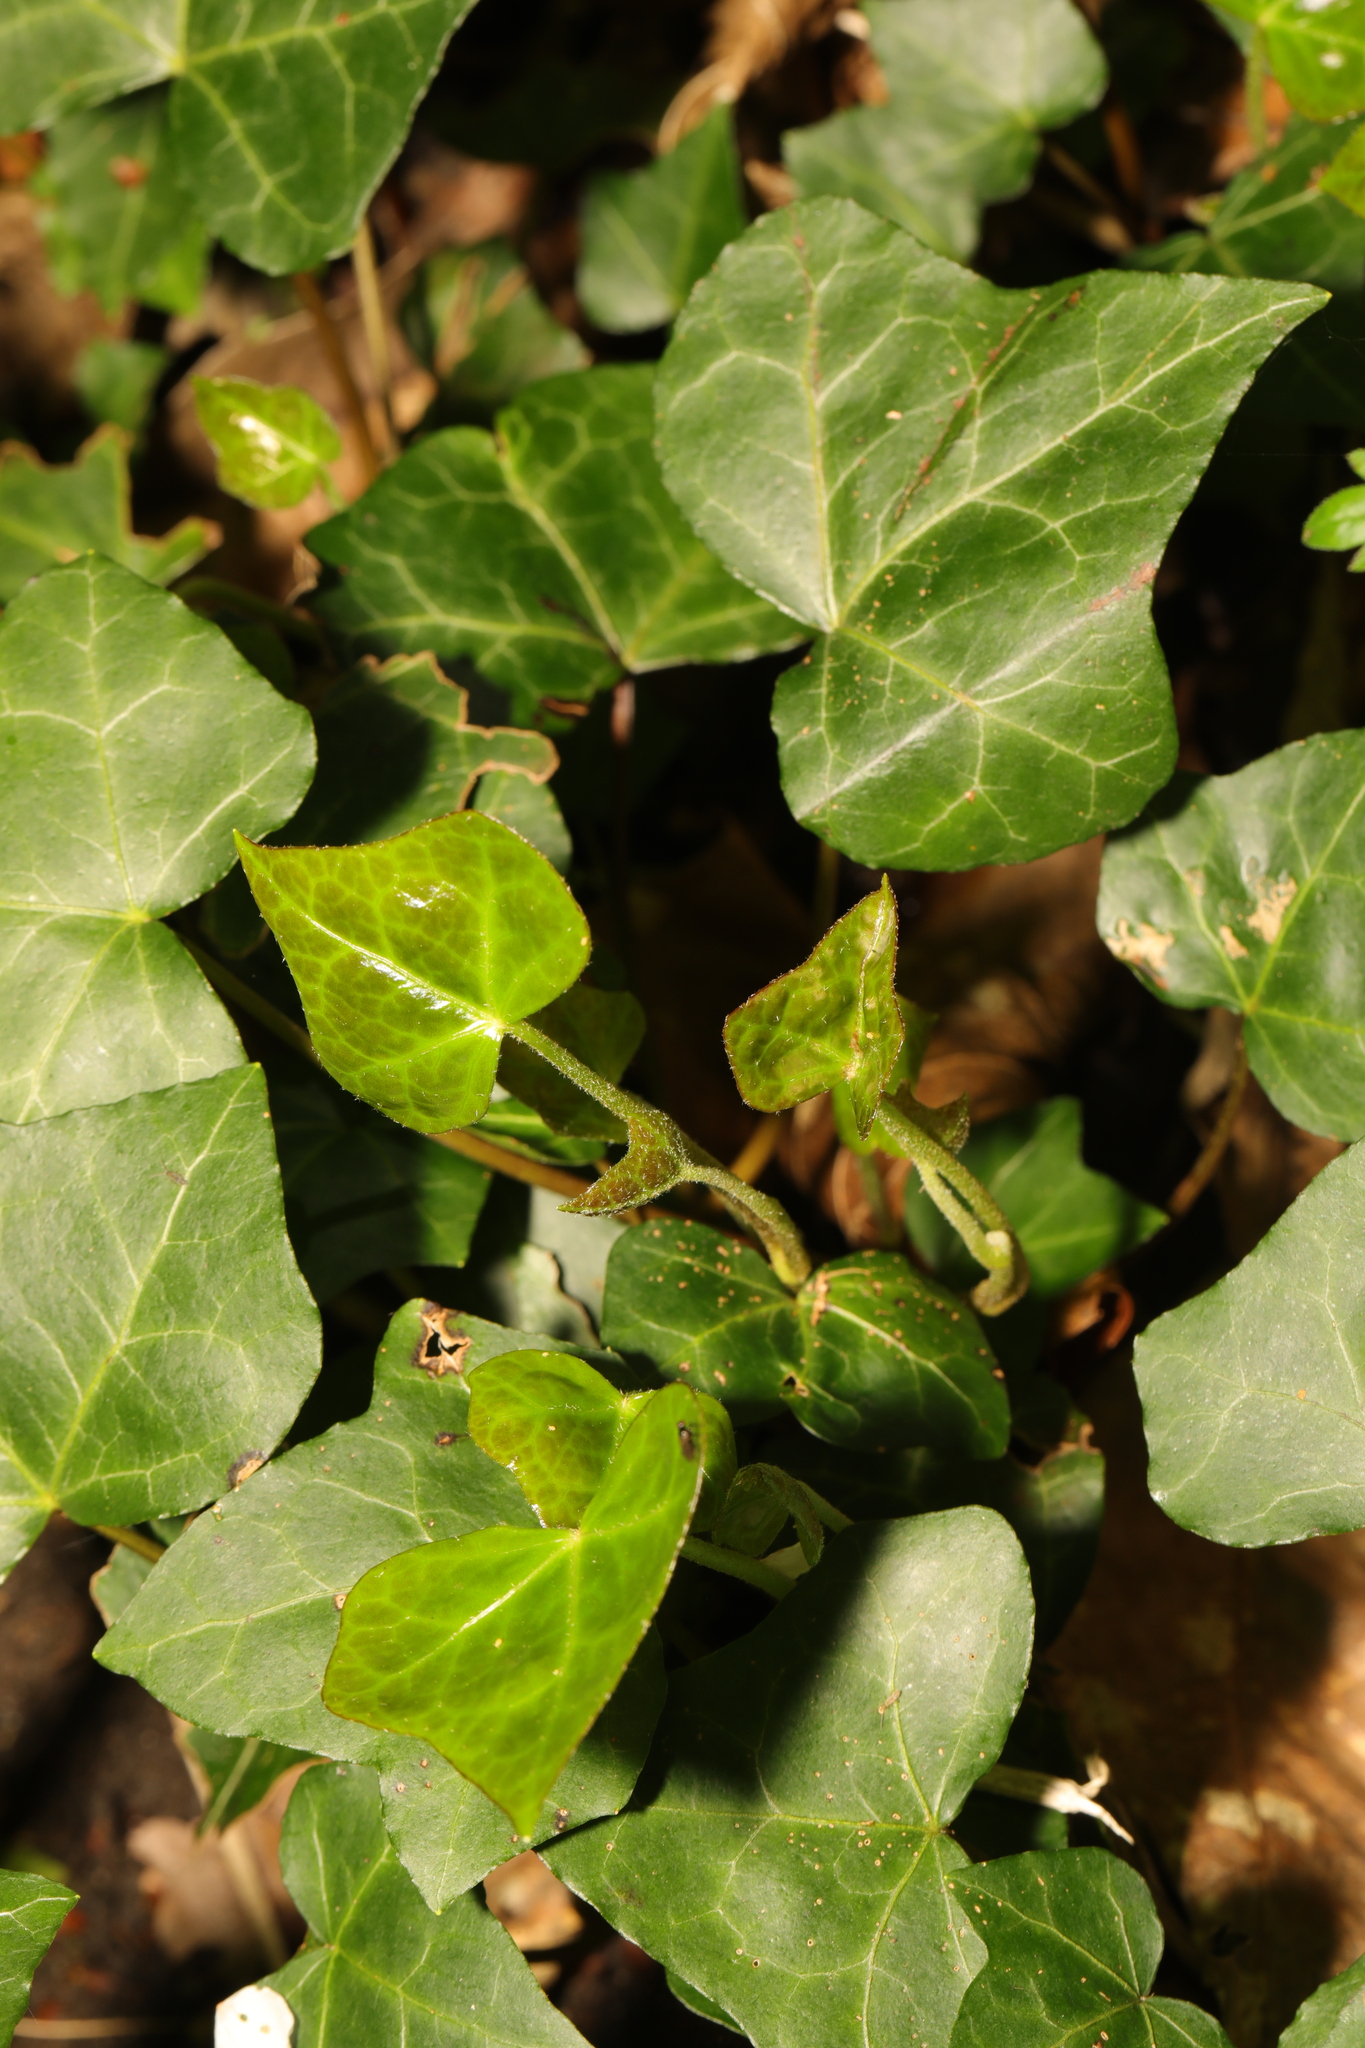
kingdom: Plantae
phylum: Tracheophyta
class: Magnoliopsida
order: Apiales
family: Araliaceae
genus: Hedera
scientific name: Hedera helix
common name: Ivy
